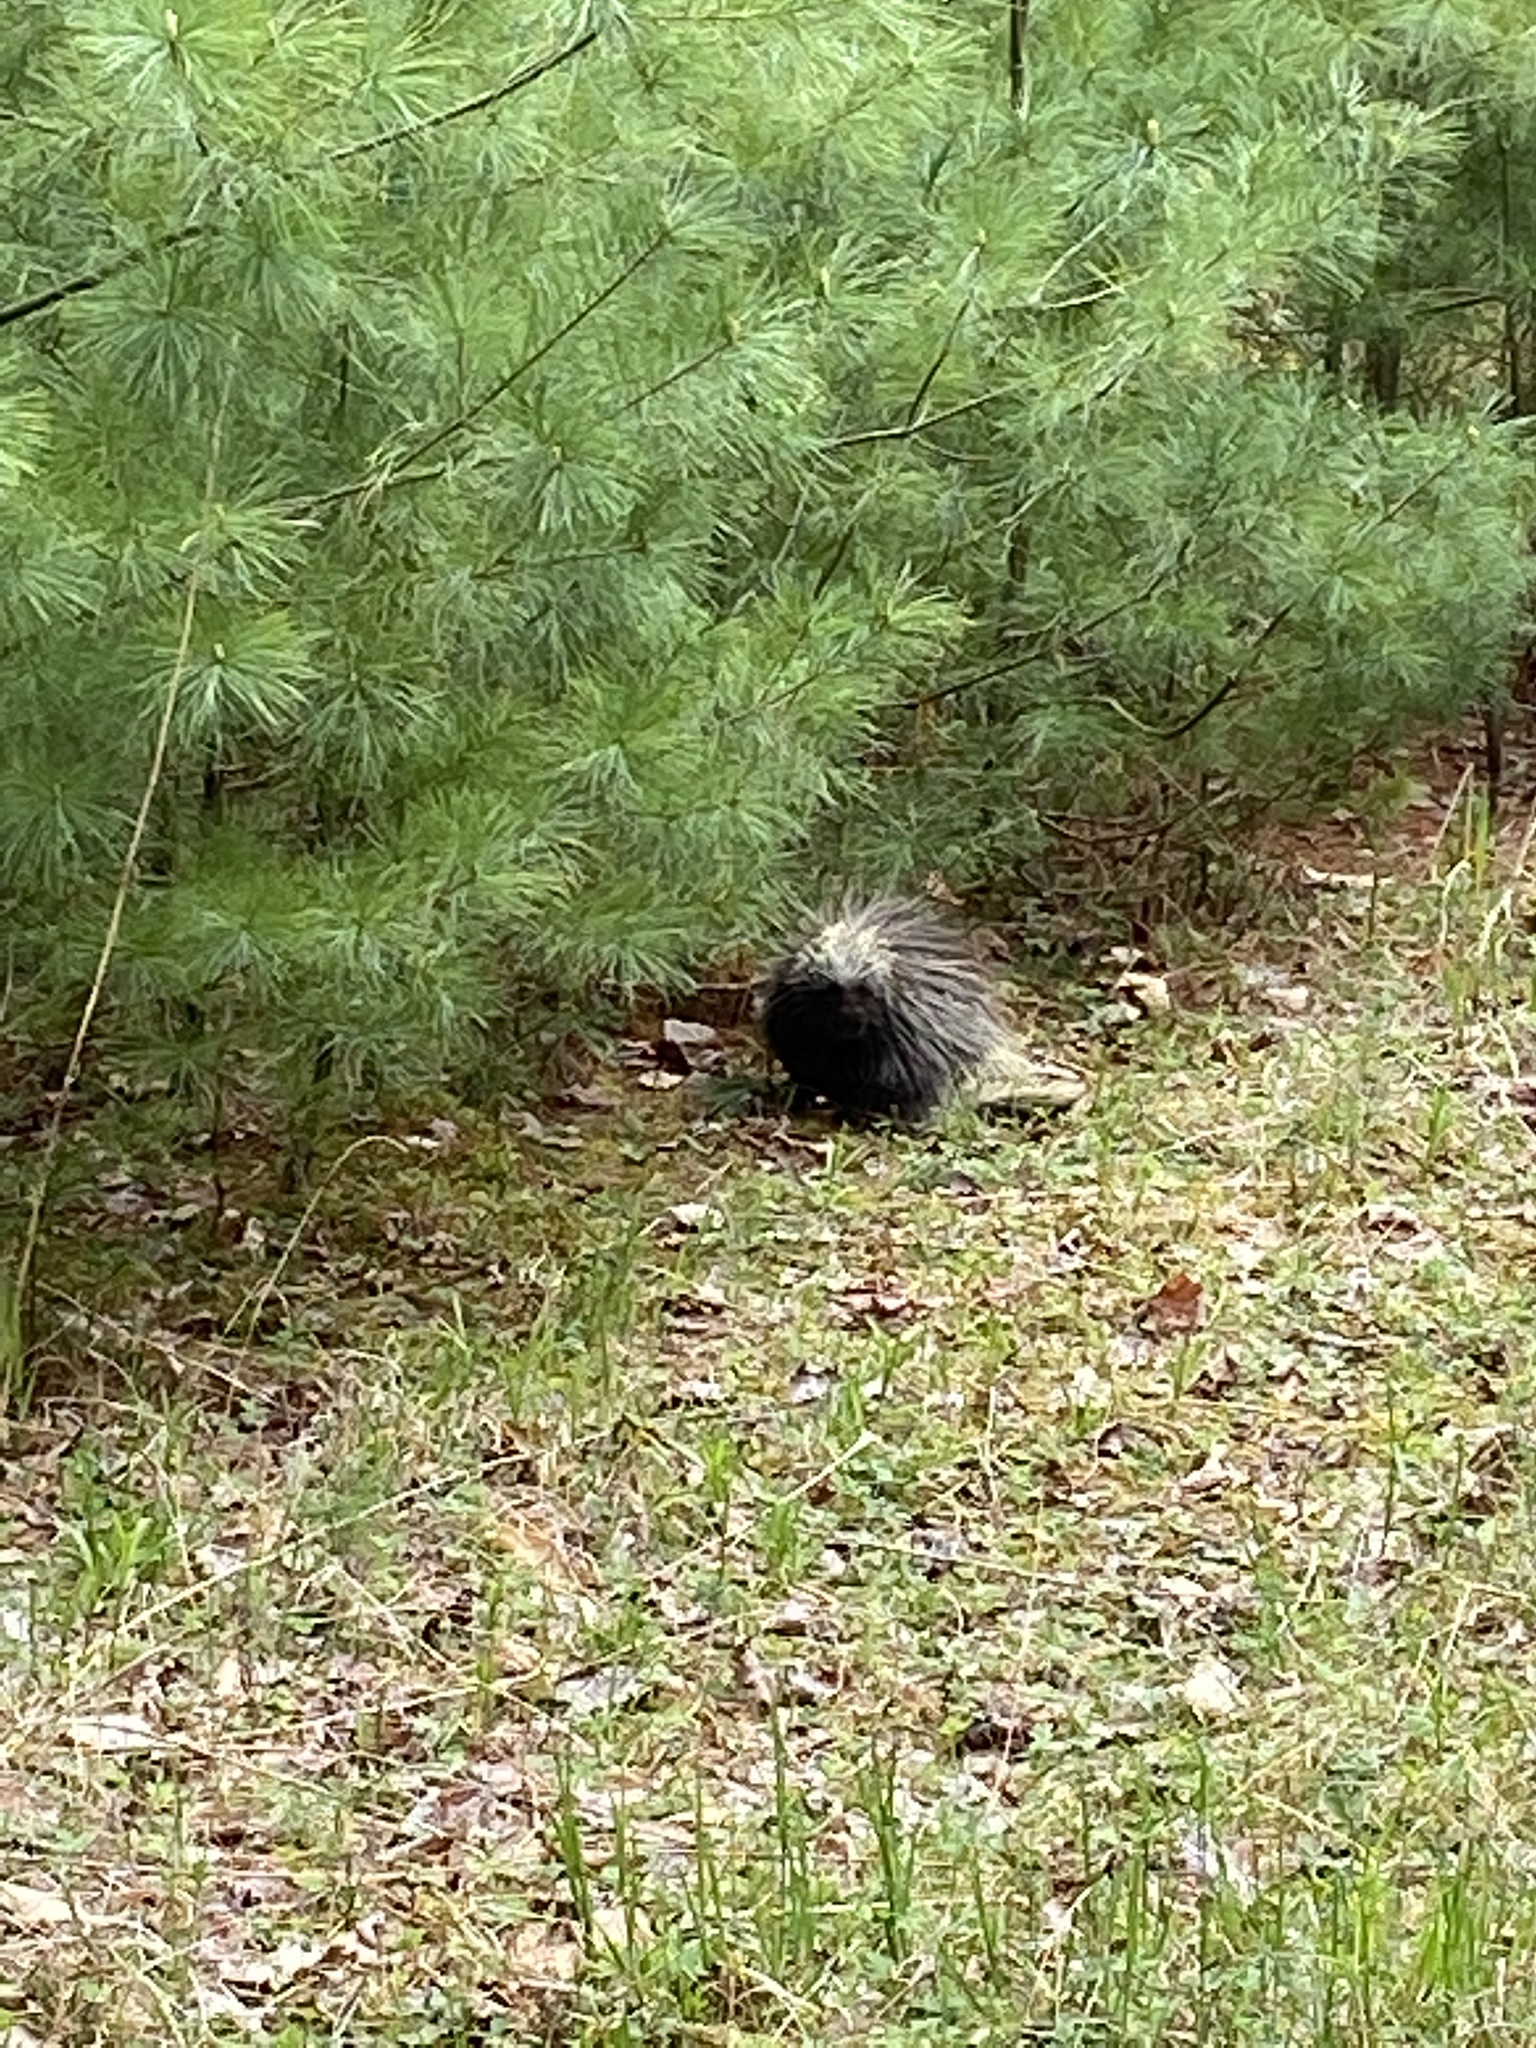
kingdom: Animalia
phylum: Chordata
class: Mammalia
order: Rodentia
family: Erethizontidae
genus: Erethizon
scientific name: Erethizon dorsatus
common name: North american porcupine
